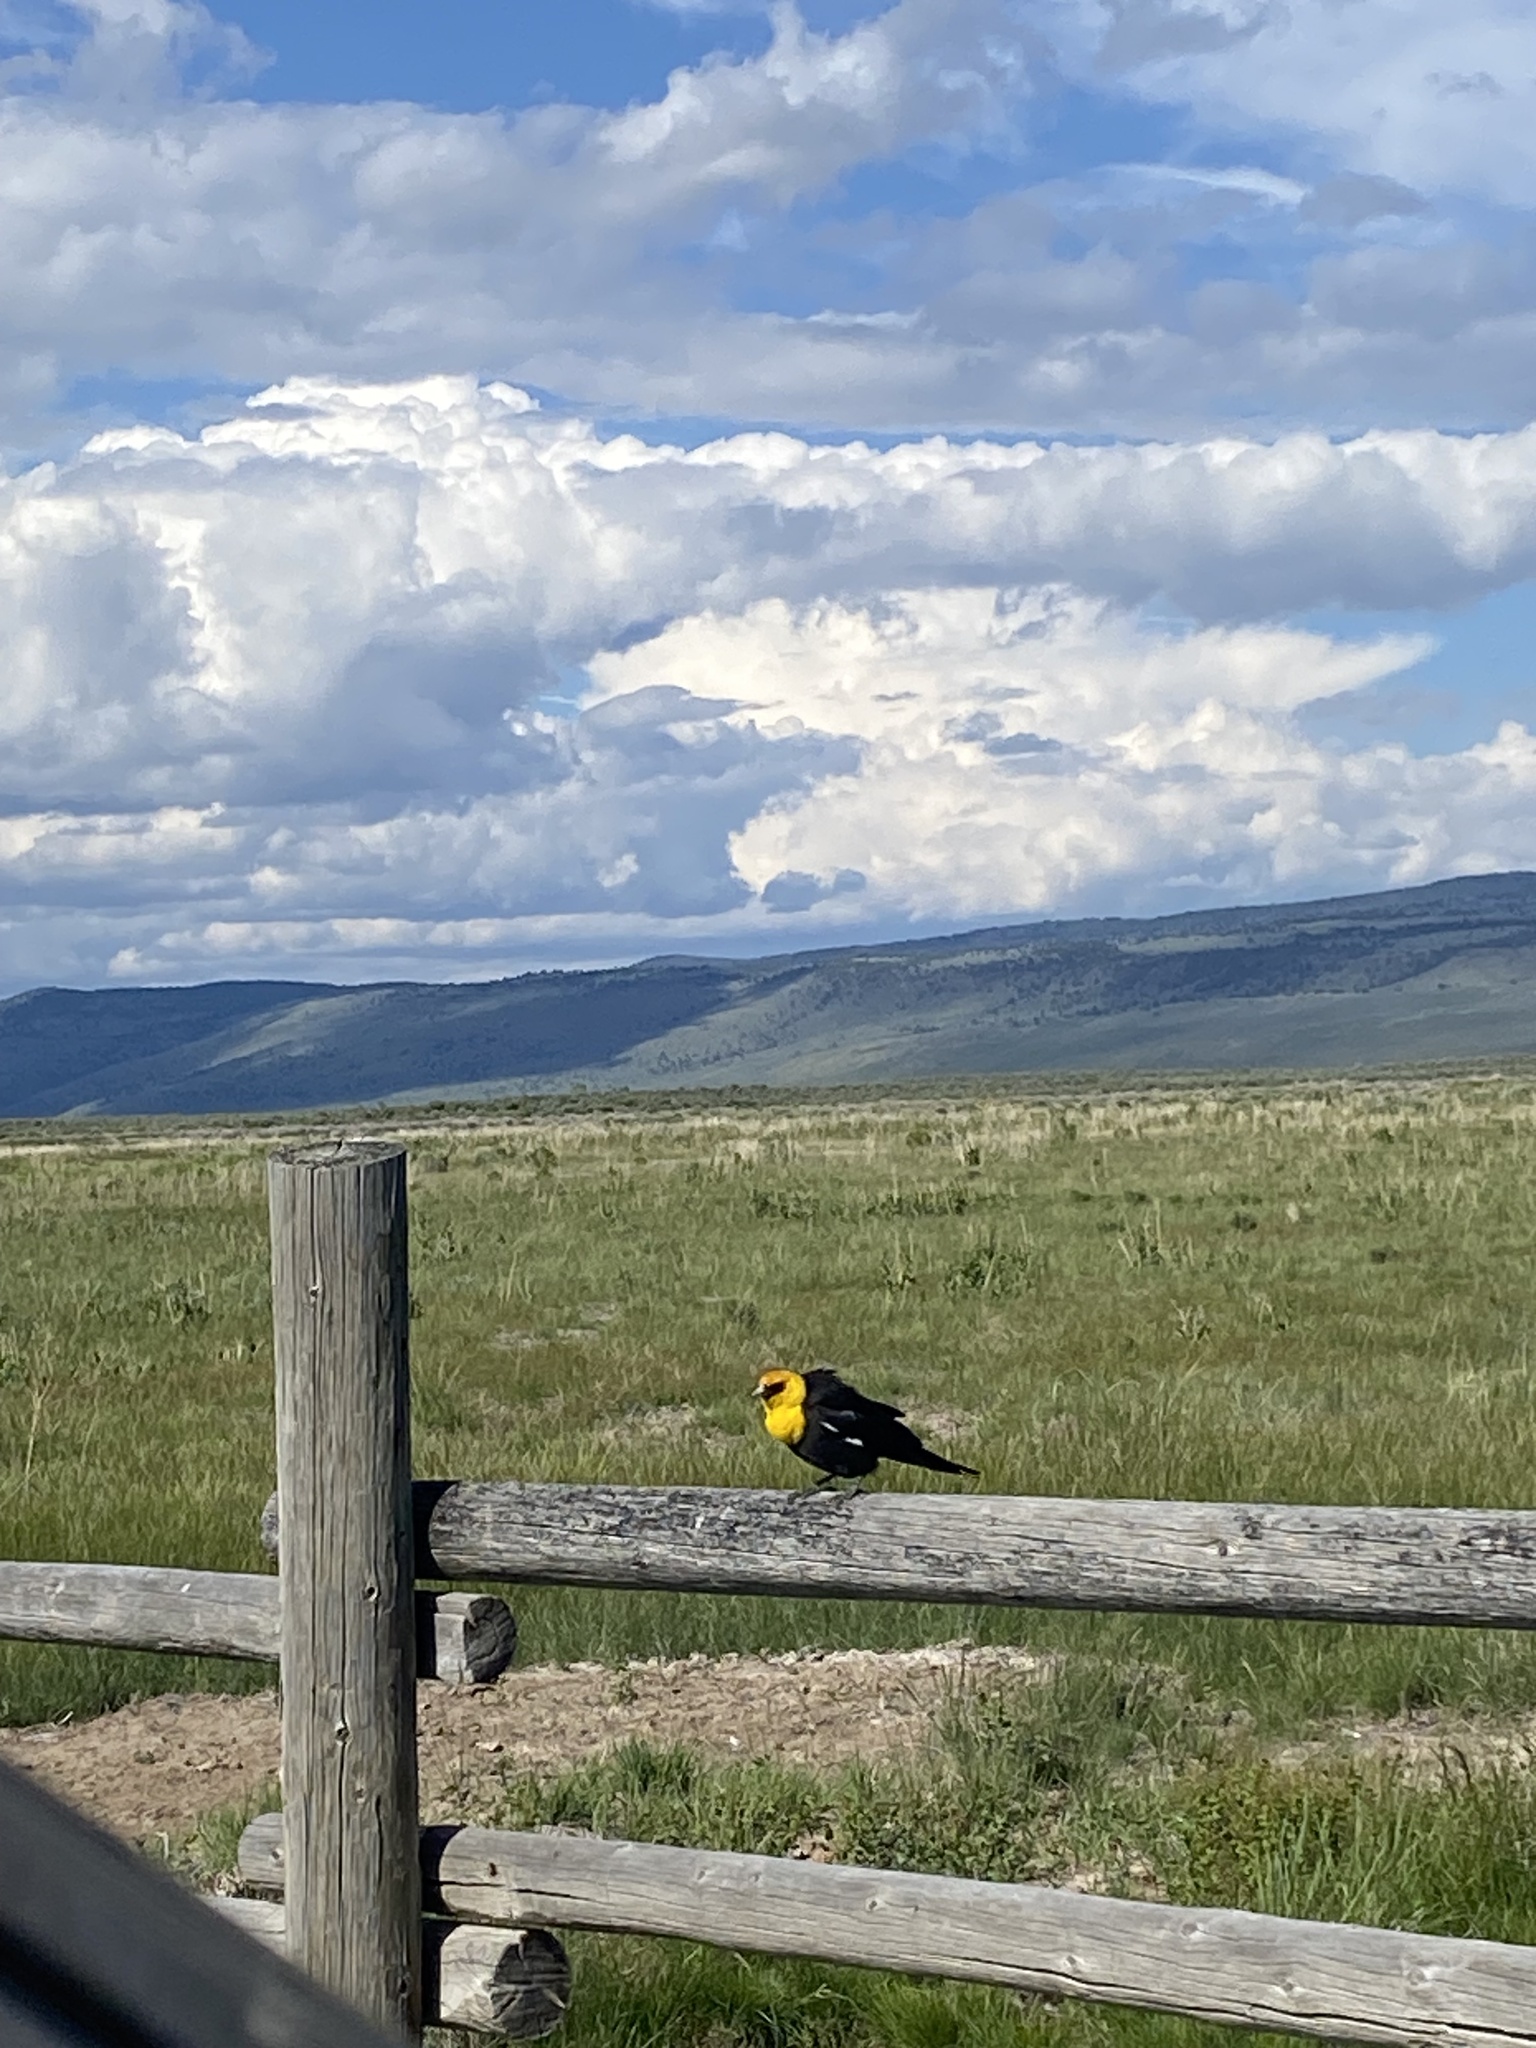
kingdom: Animalia
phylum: Chordata
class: Aves
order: Passeriformes
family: Icteridae
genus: Xanthocephalus
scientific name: Xanthocephalus xanthocephalus
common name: Yellow-headed blackbird
